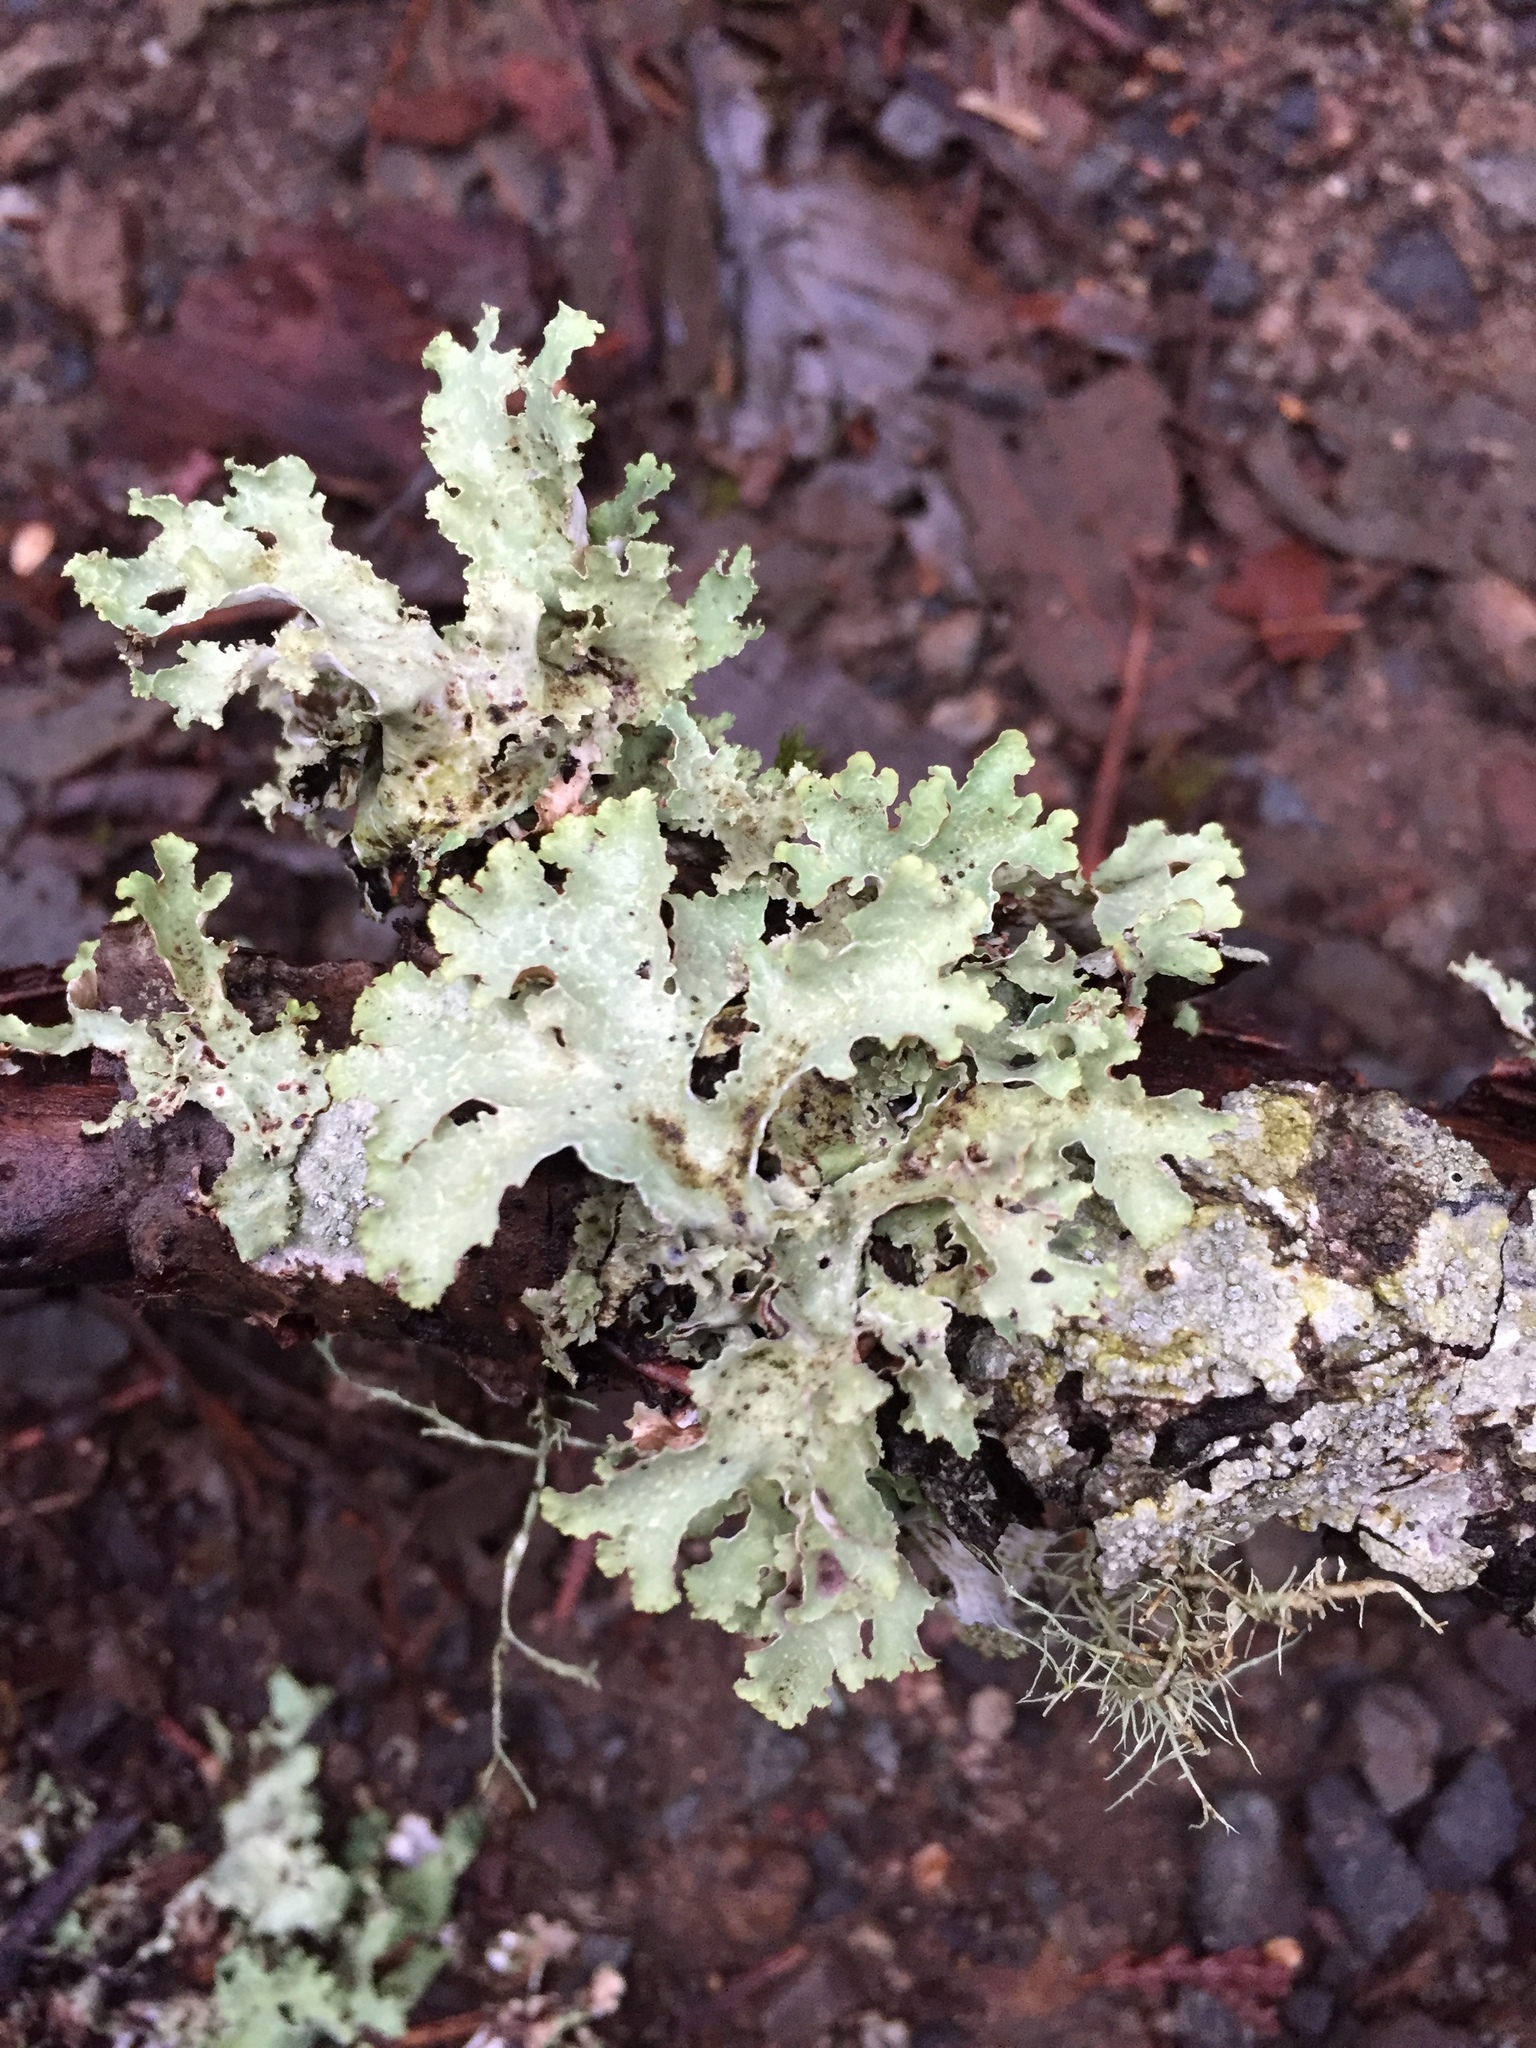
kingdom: Fungi
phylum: Ascomycota
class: Lecanoromycetes
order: Lecanorales
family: Parmeliaceae
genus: Platismatia
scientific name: Platismatia glauca
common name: Varied rag lichen
